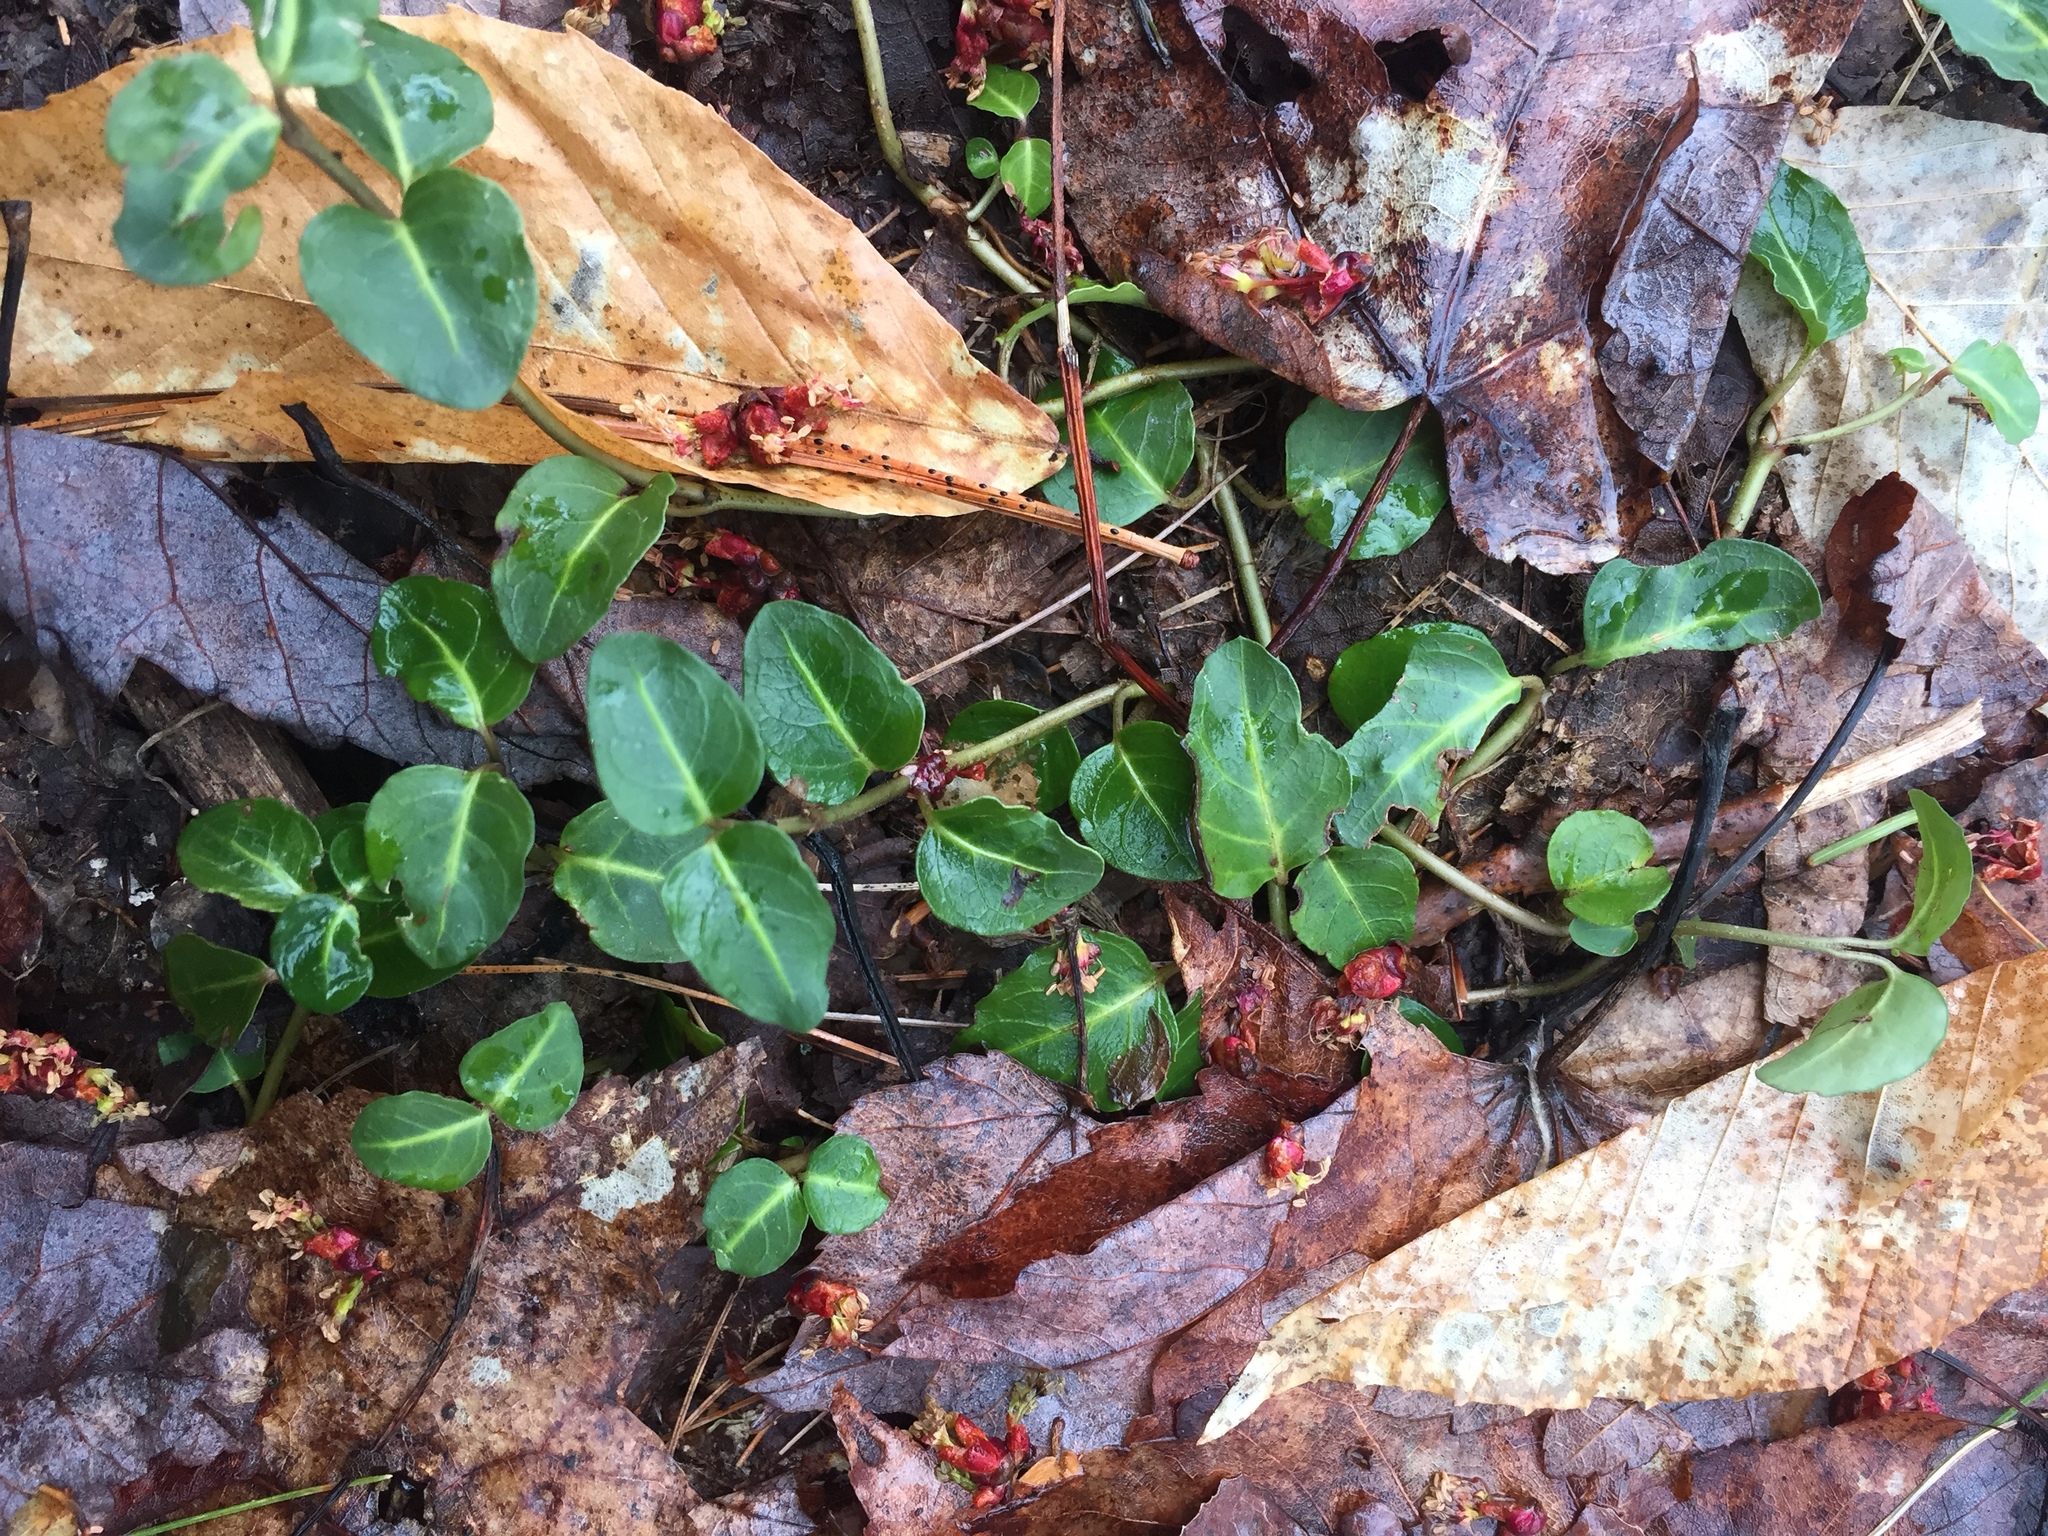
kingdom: Plantae
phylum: Tracheophyta
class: Magnoliopsida
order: Gentianales
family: Rubiaceae
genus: Mitchella
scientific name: Mitchella repens
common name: Partridge-berry
